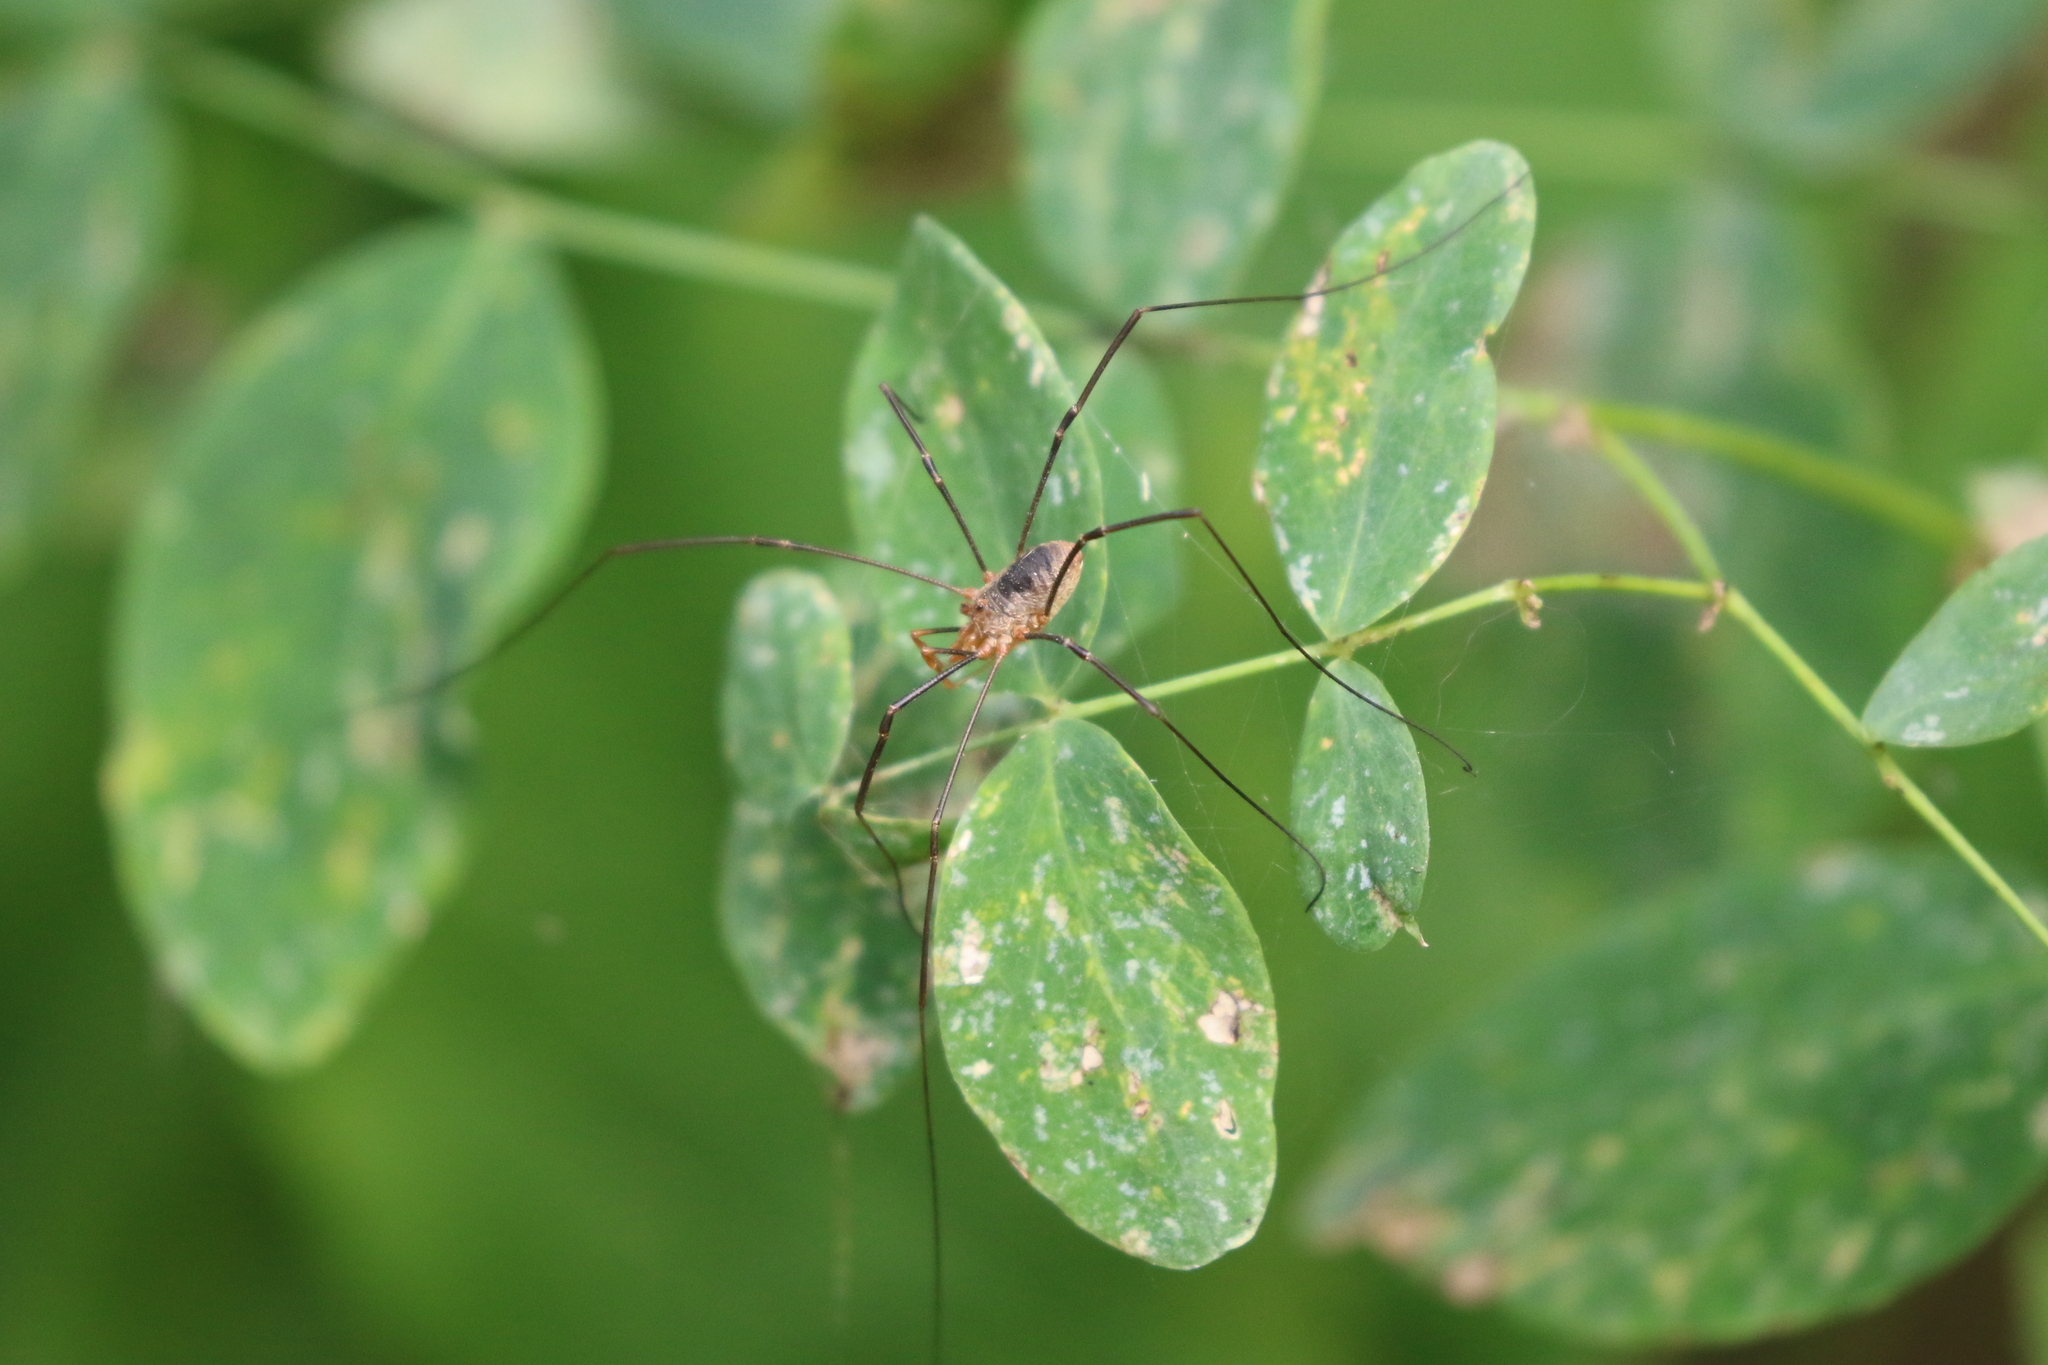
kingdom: Animalia
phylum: Arthropoda
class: Arachnida
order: Opiliones
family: Phalangiidae
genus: Phalangium
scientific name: Phalangium opilio
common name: Daddy longleg
